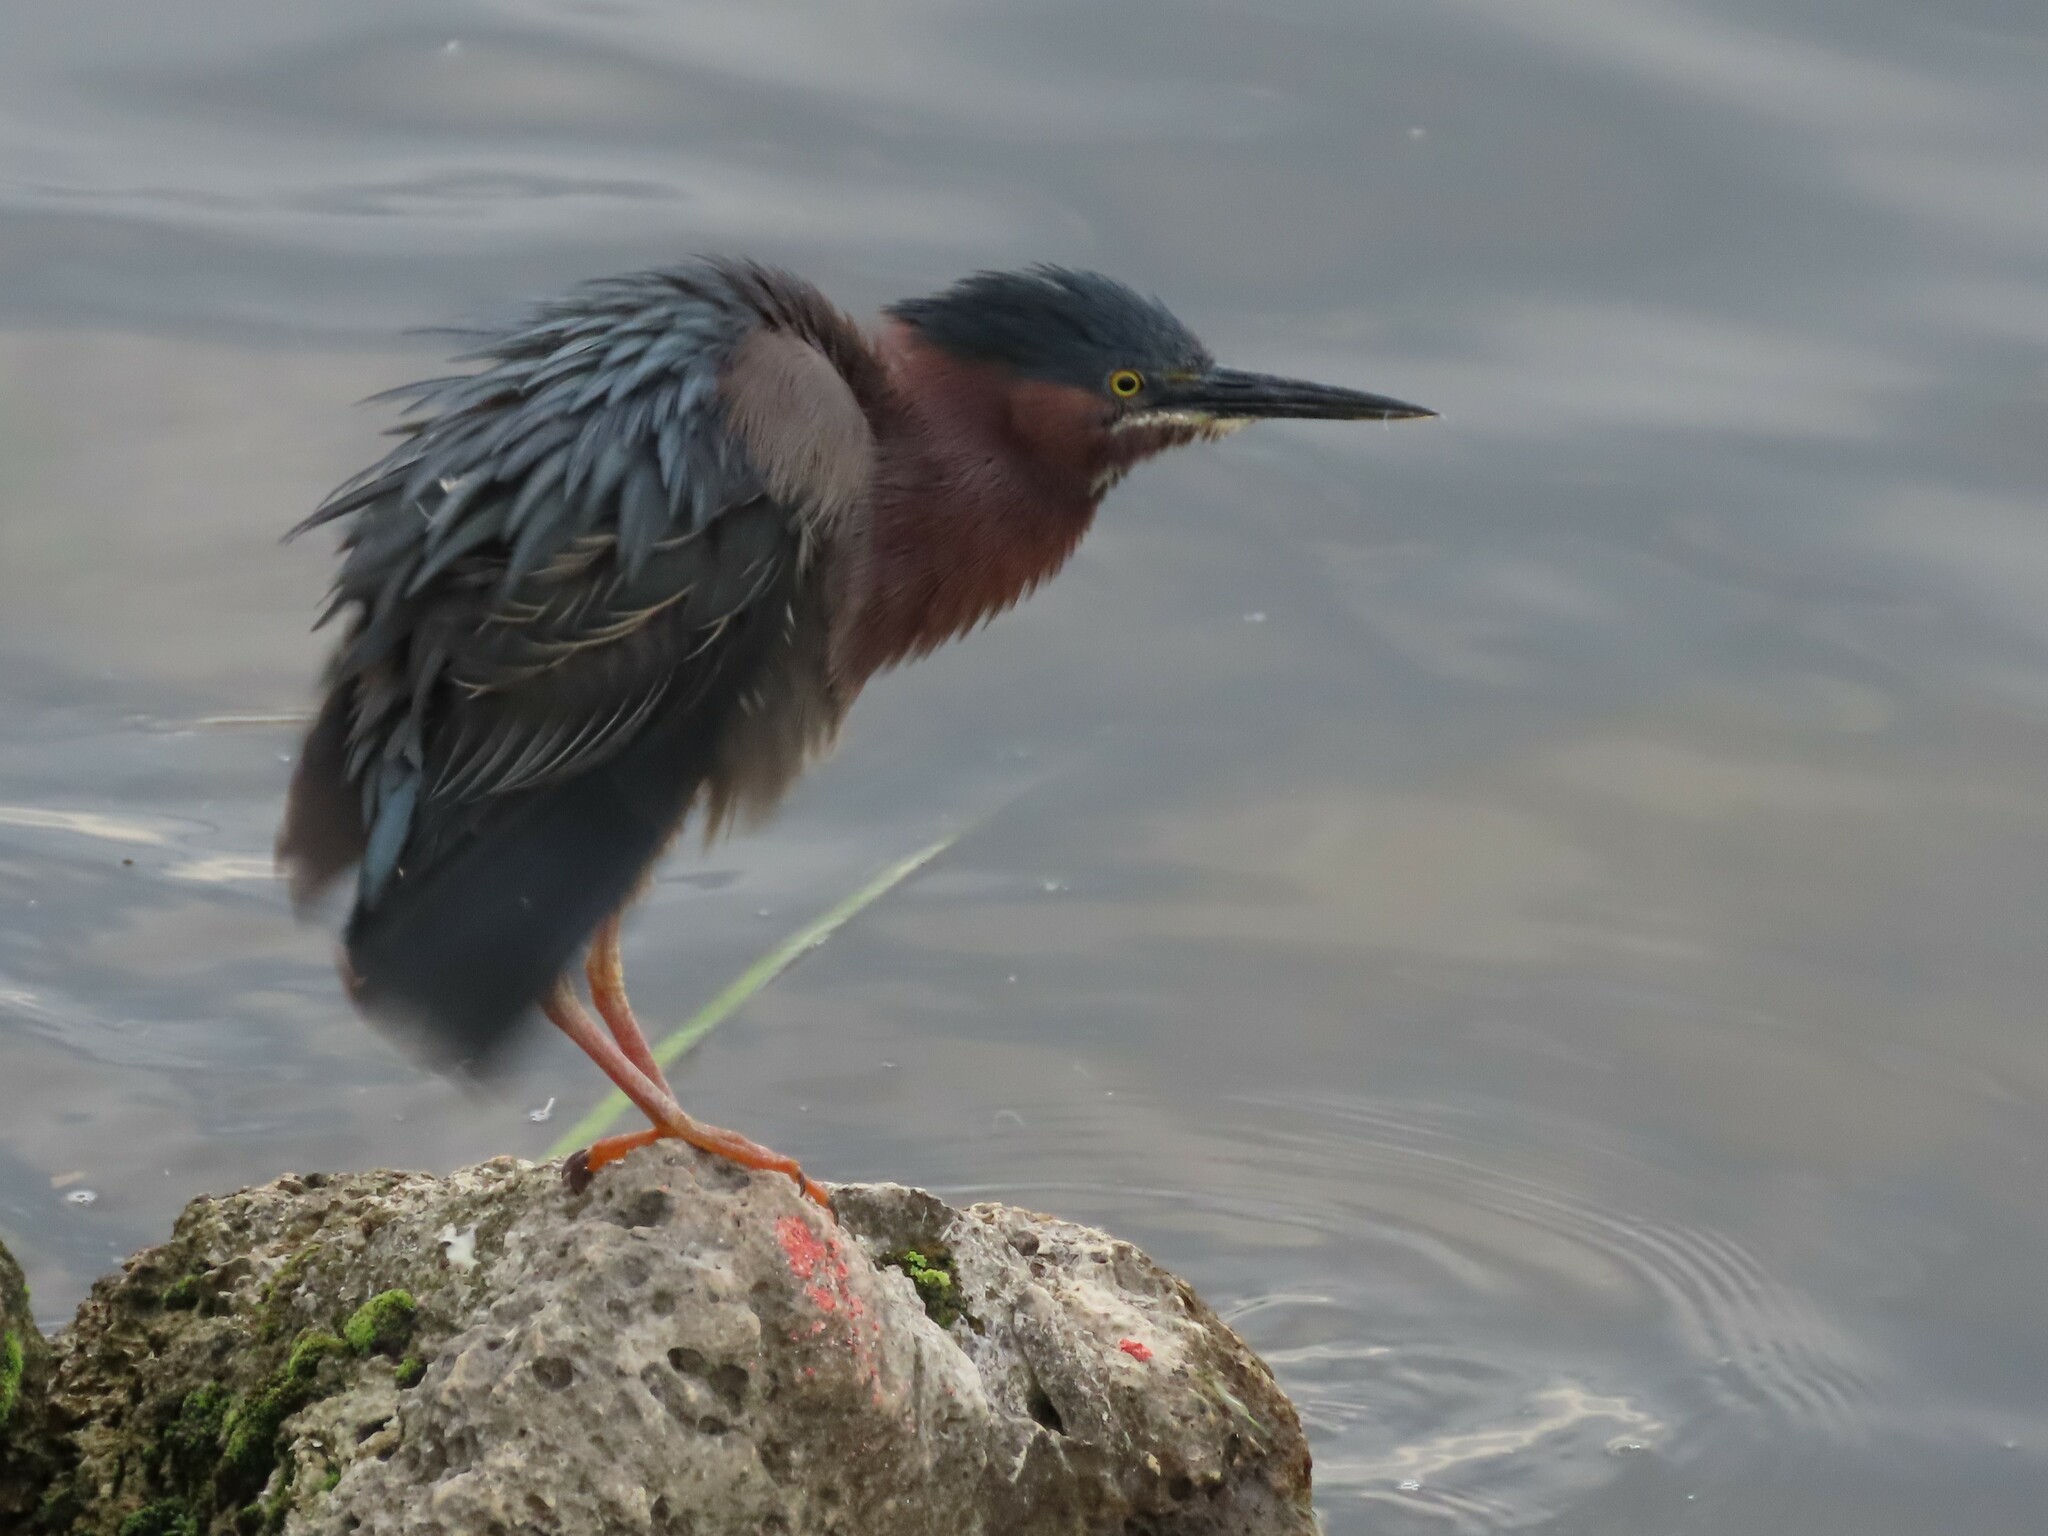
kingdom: Animalia
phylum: Chordata
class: Aves
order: Pelecaniformes
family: Ardeidae
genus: Butorides
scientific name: Butorides virescens
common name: Green heron
